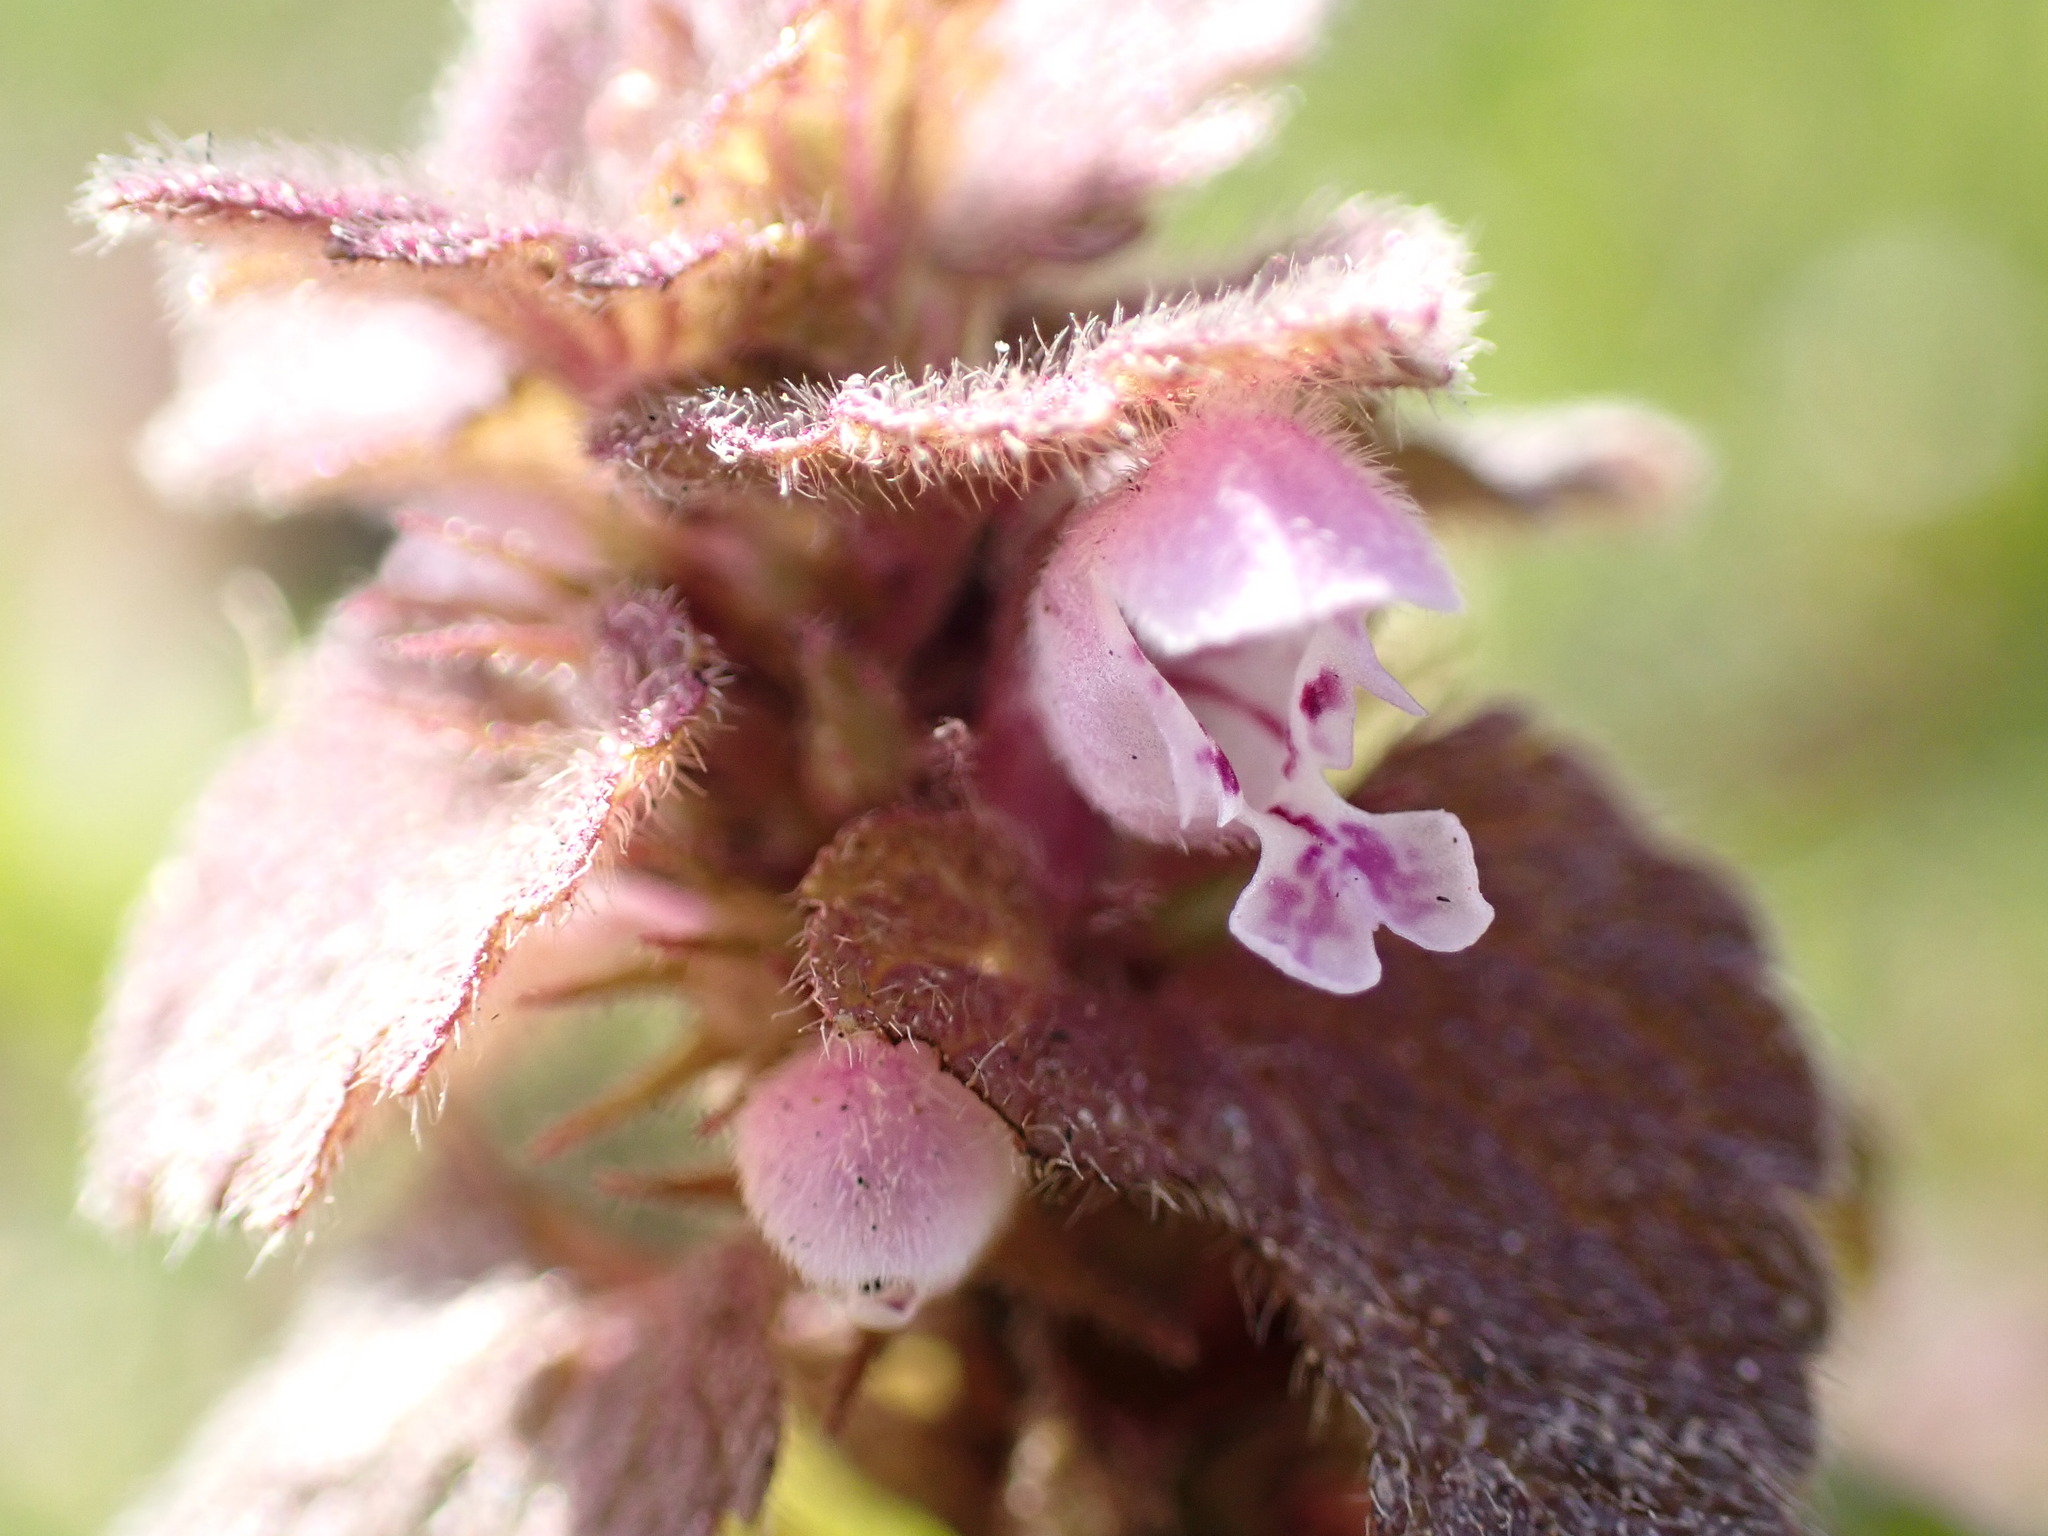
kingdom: Plantae
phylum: Tracheophyta
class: Magnoliopsida
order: Lamiales
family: Lamiaceae
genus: Lamium
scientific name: Lamium purpureum
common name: Red dead-nettle
